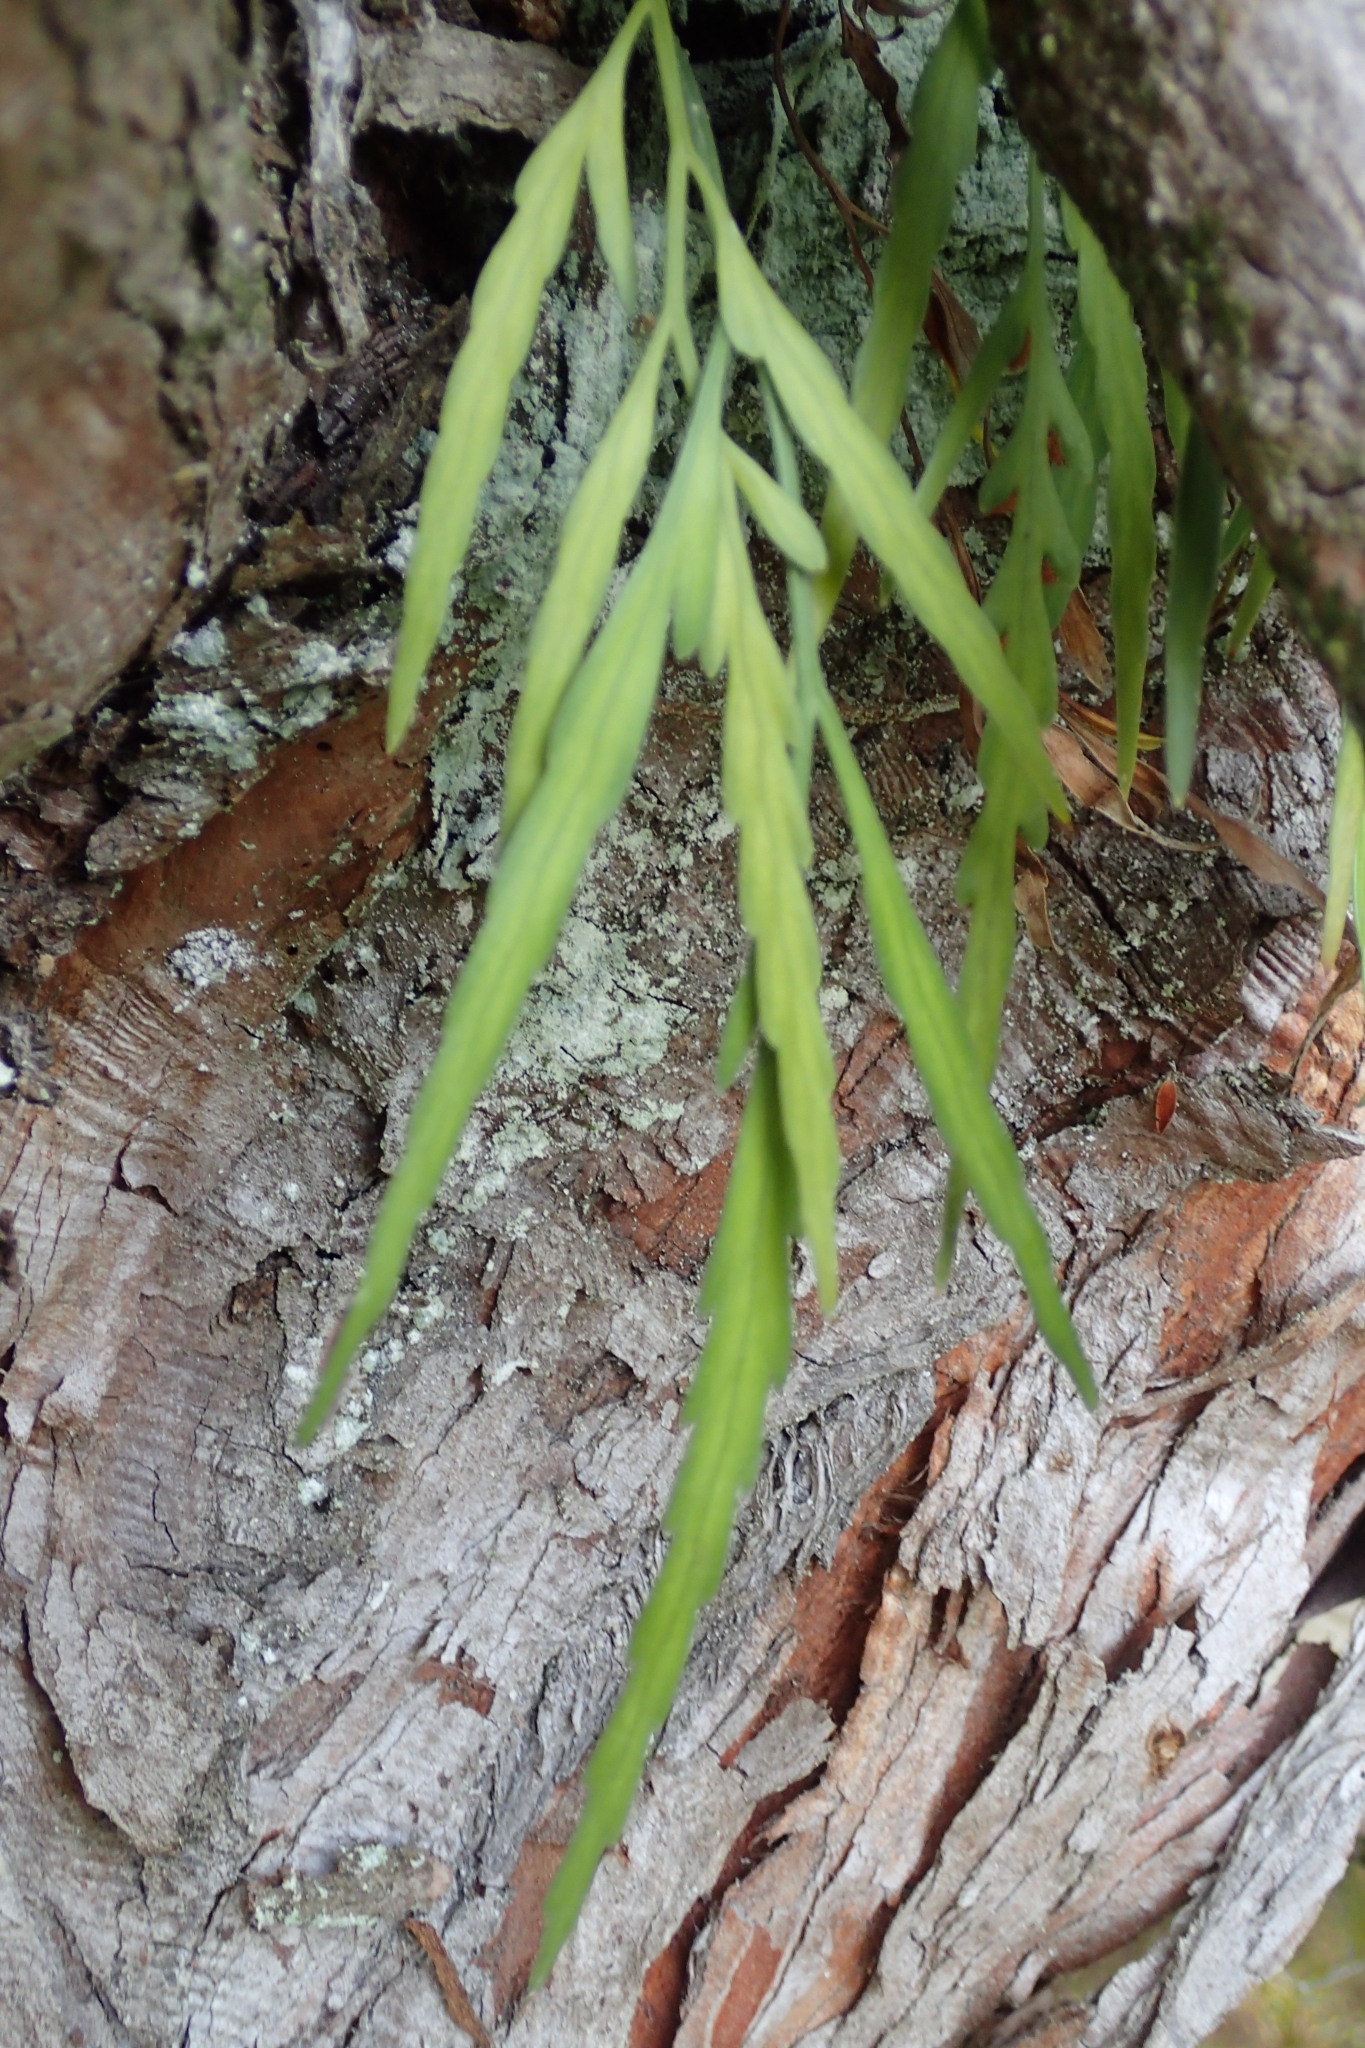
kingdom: Plantae
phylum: Tracheophyta
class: Polypodiopsida
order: Polypodiales
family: Aspleniaceae
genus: Asplenium
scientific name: Asplenium flaccidum
